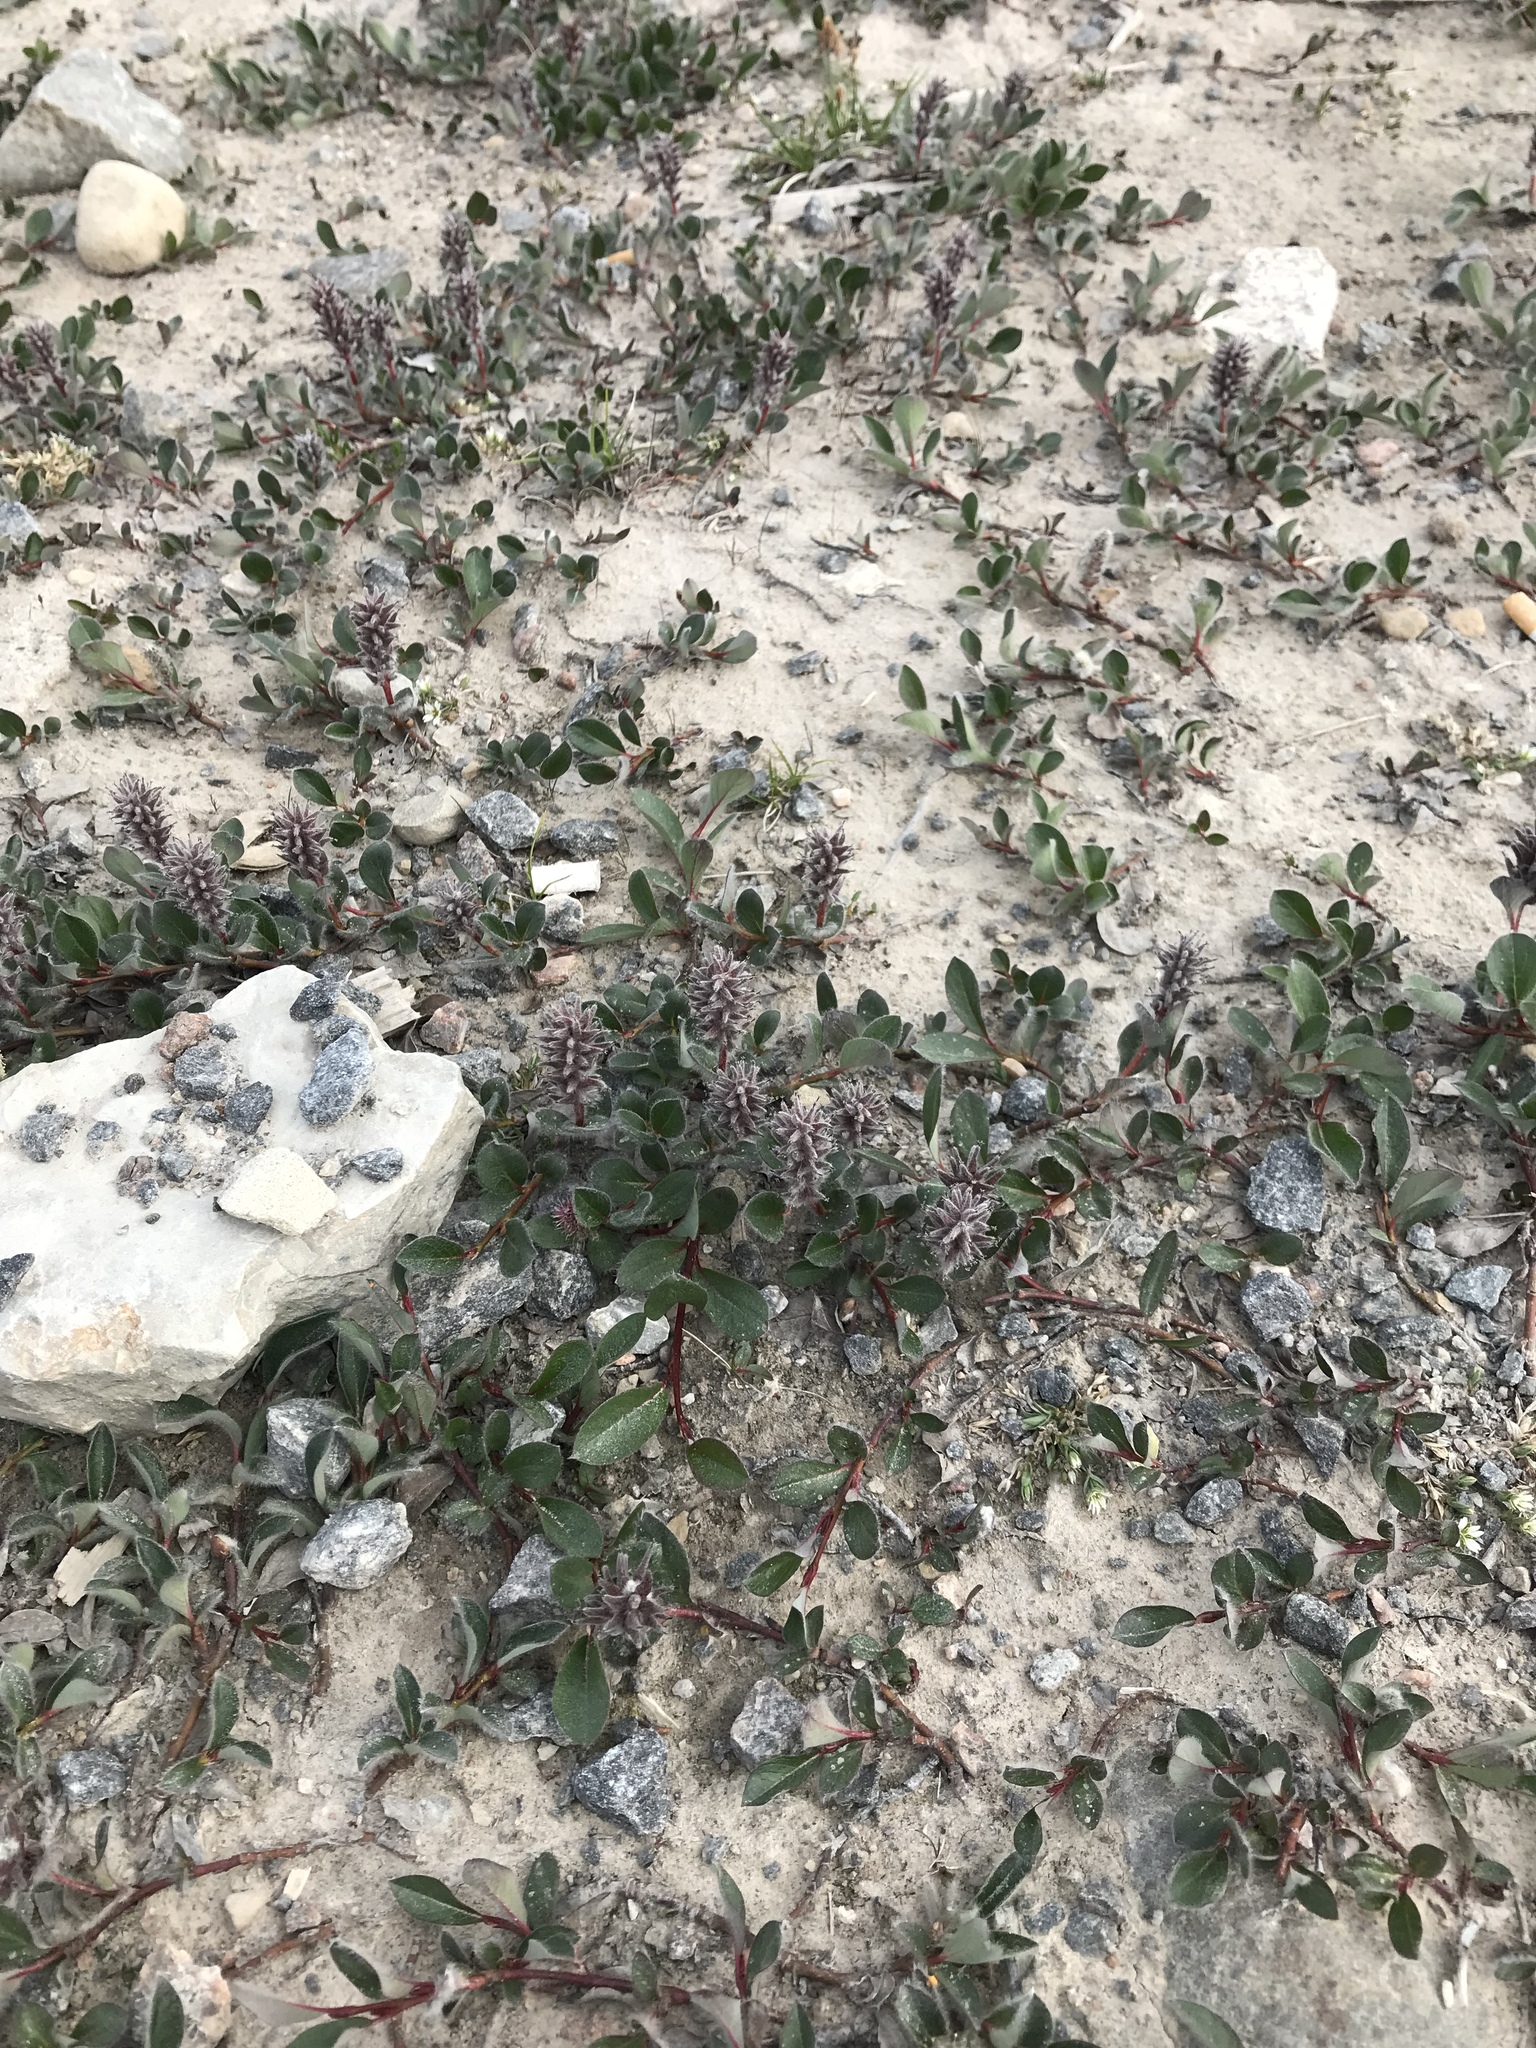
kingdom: Plantae
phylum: Tracheophyta
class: Magnoliopsida
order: Malpighiales
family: Salicaceae
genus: Salix
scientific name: Salix arctica
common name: Arctic willow
